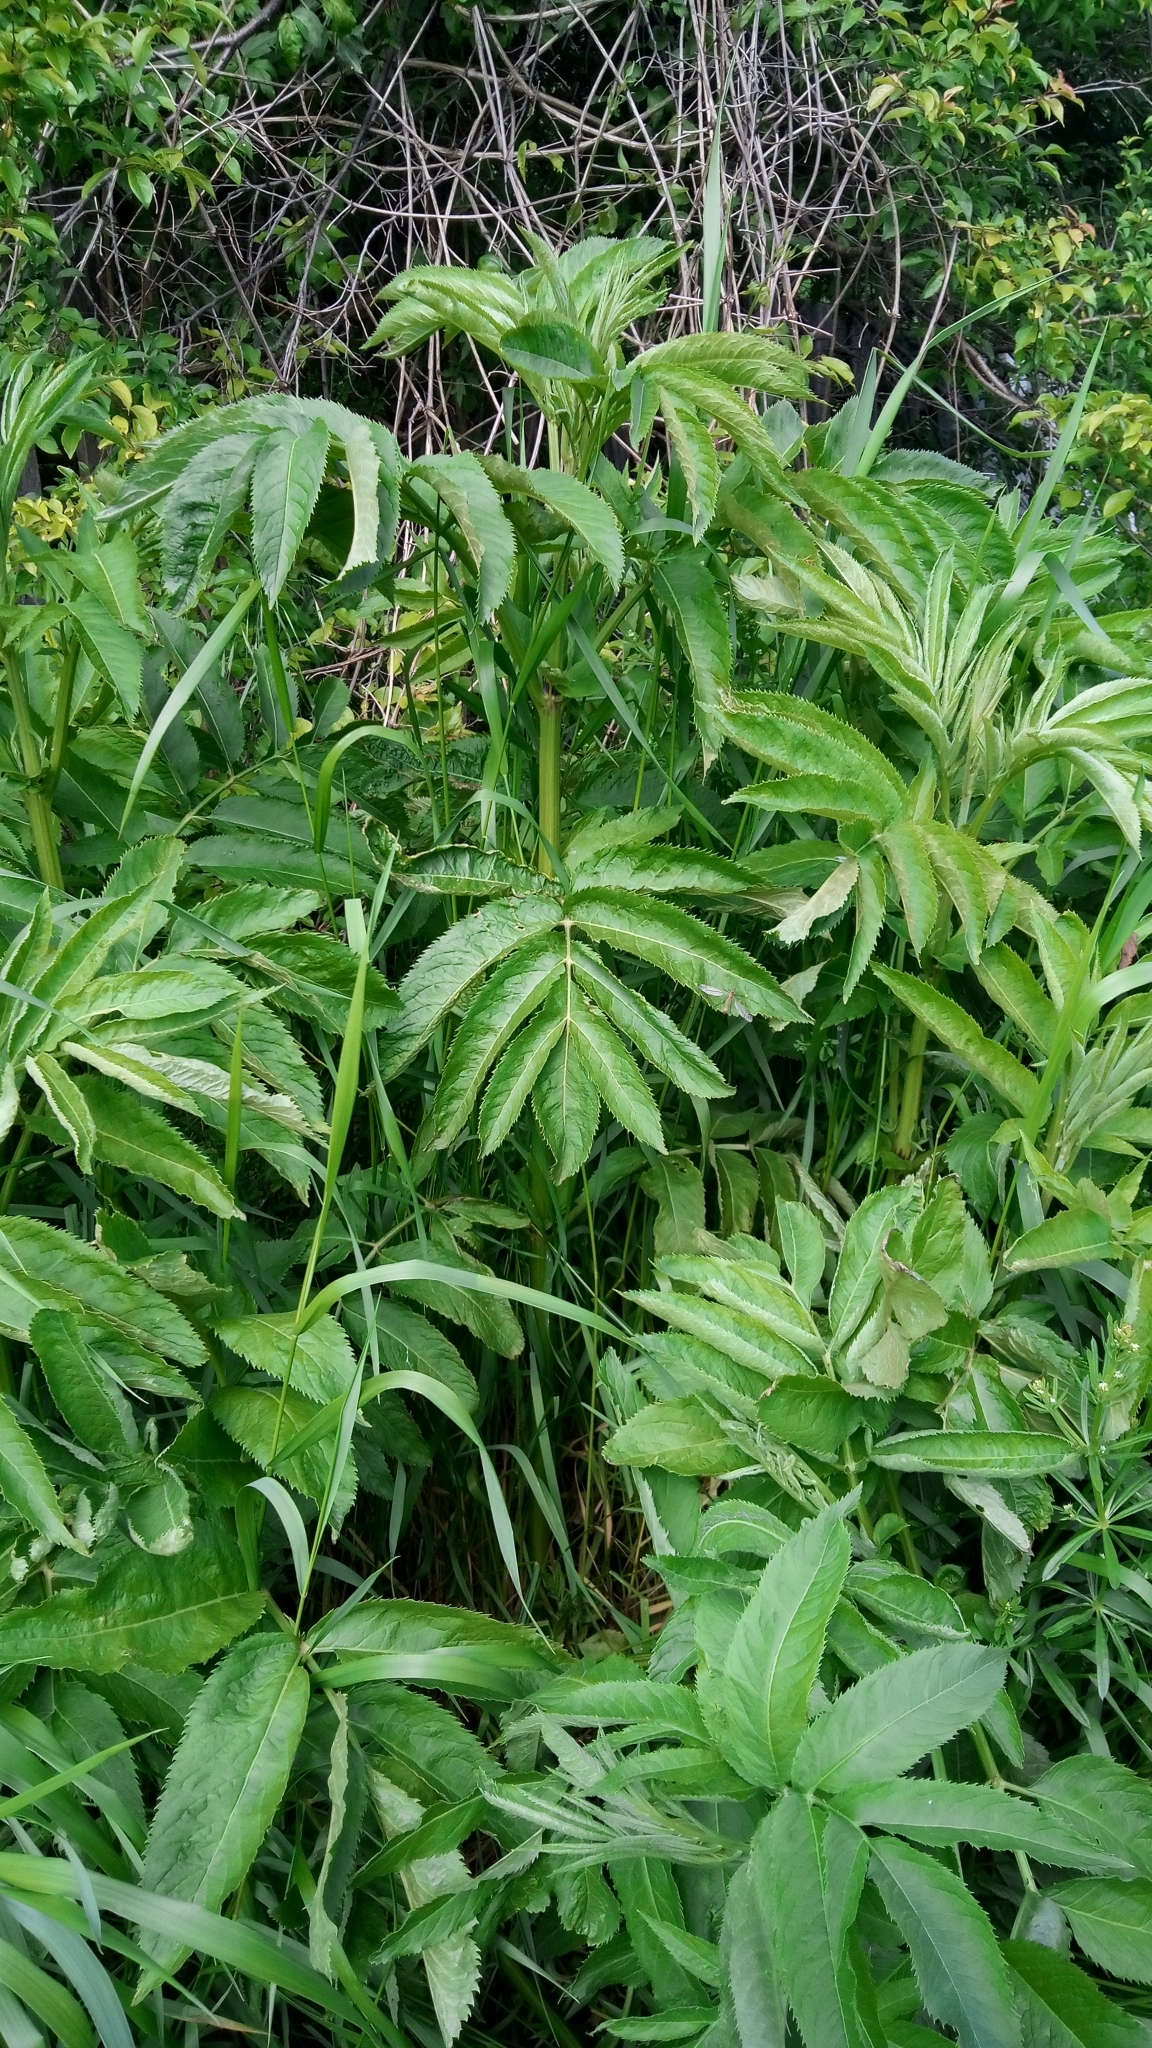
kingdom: Plantae
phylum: Tracheophyta
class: Magnoliopsida
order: Dipsacales
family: Viburnaceae
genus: Sambucus
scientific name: Sambucus ebulus
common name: Dwarf elder
